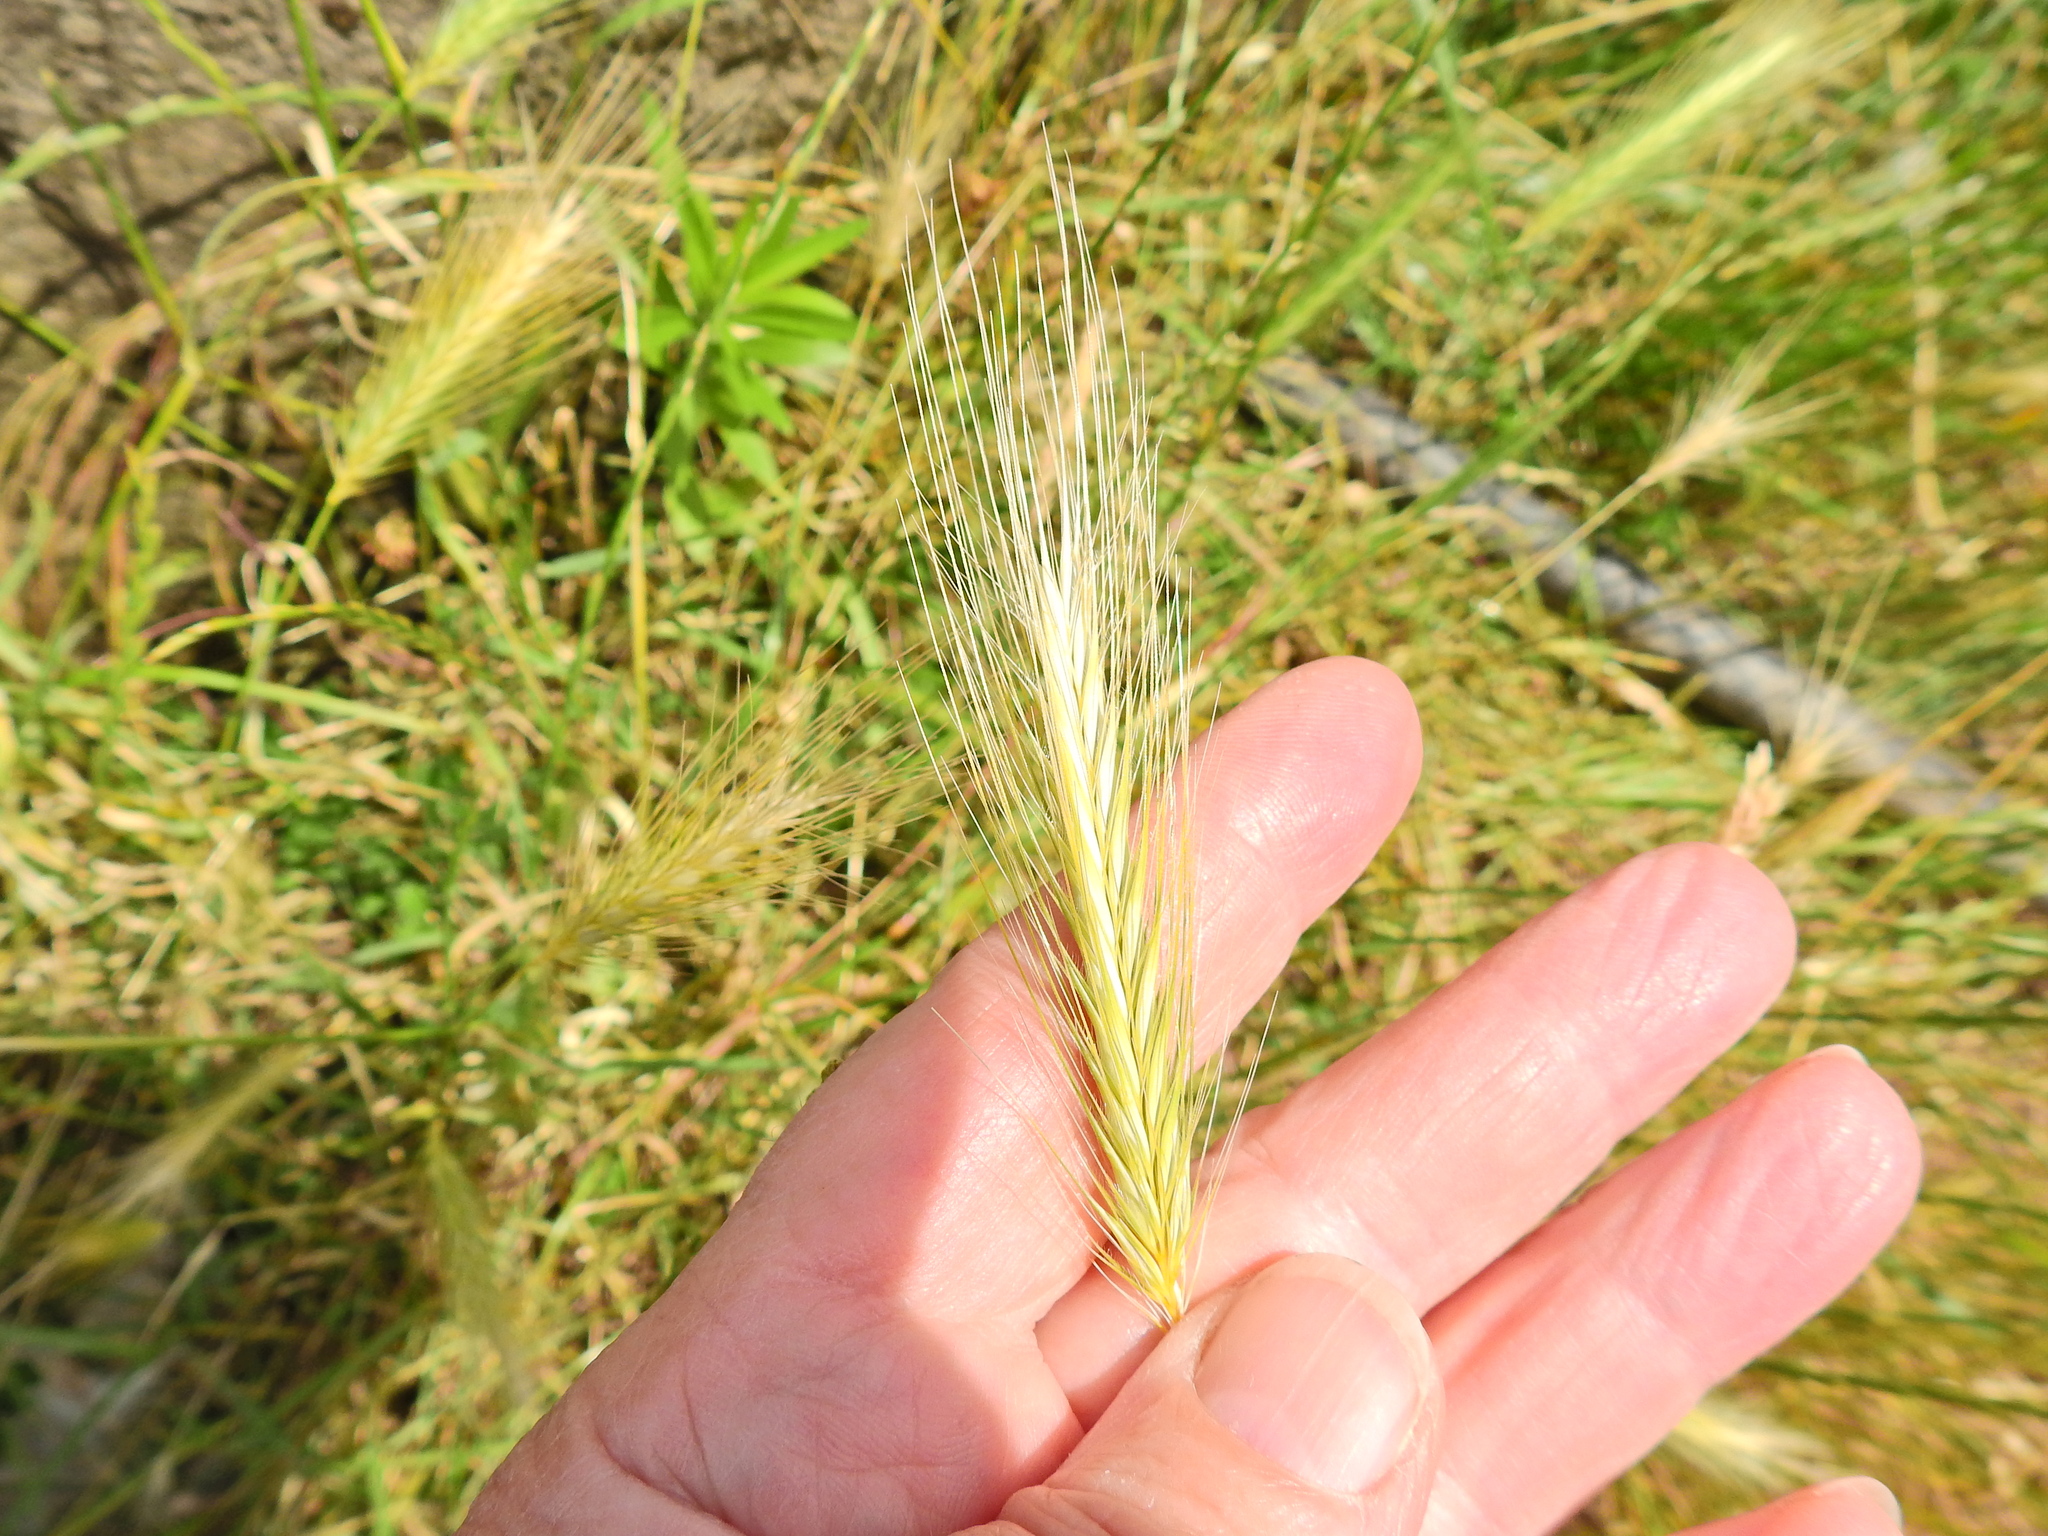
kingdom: Plantae
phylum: Tracheophyta
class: Liliopsida
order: Poales
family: Poaceae
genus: Hordeum
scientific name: Hordeum murinum
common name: Wall barley
